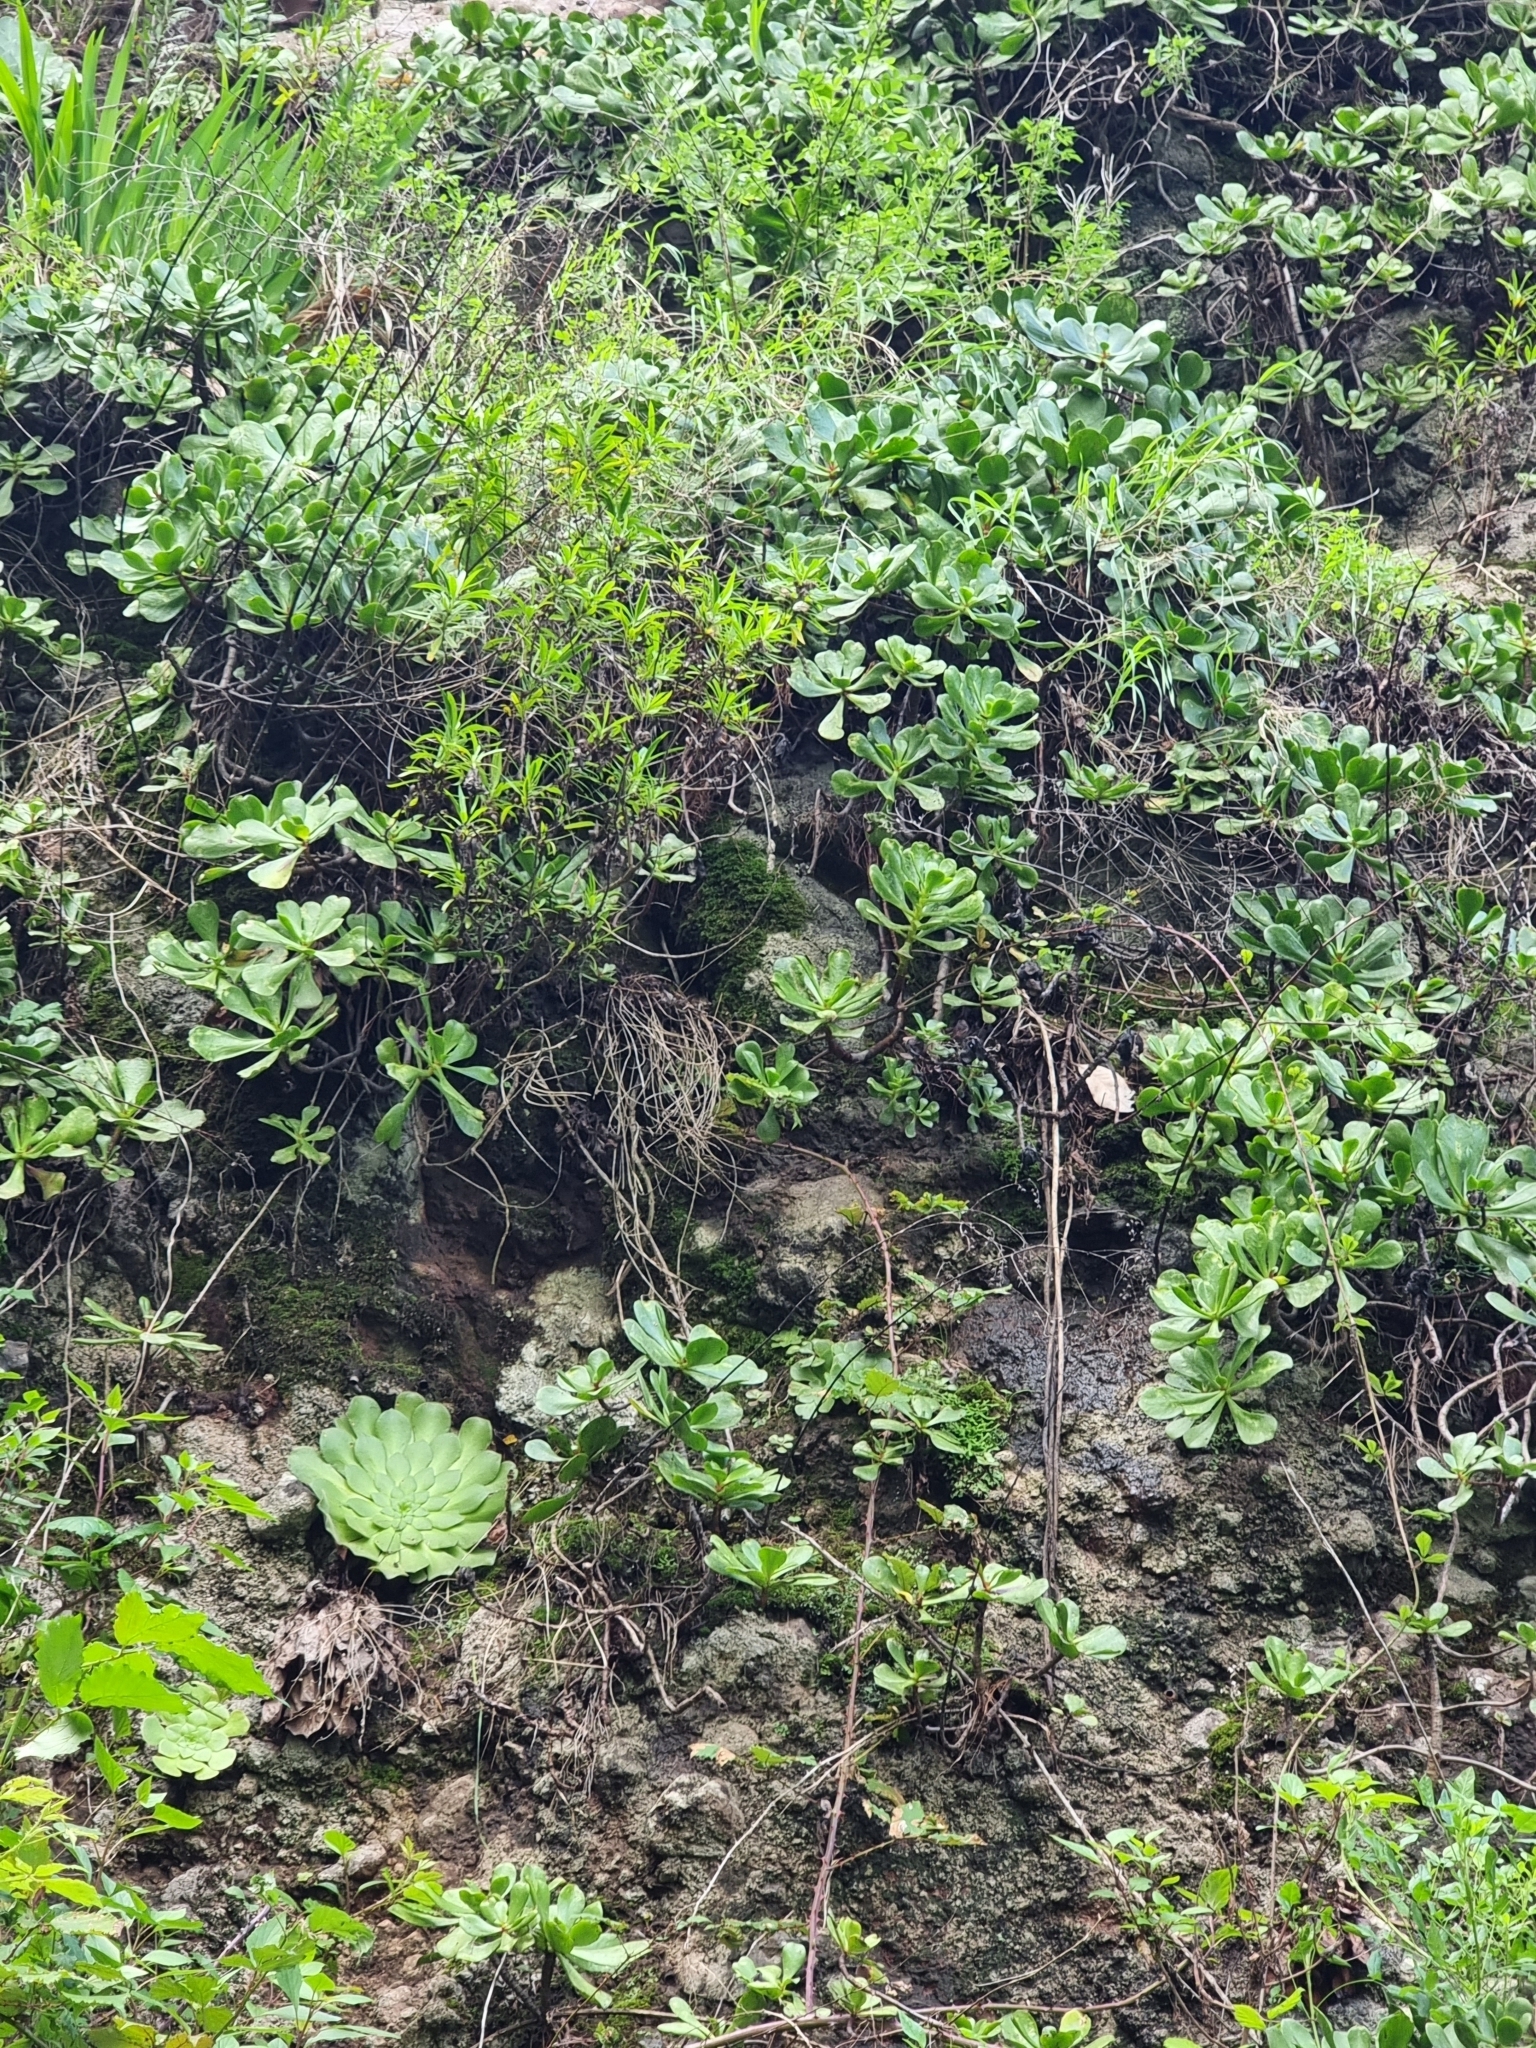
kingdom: Plantae
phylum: Tracheophyta
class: Magnoliopsida
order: Saxifragales
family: Crassulaceae
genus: Aeonium
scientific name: Aeonium glandulosum
